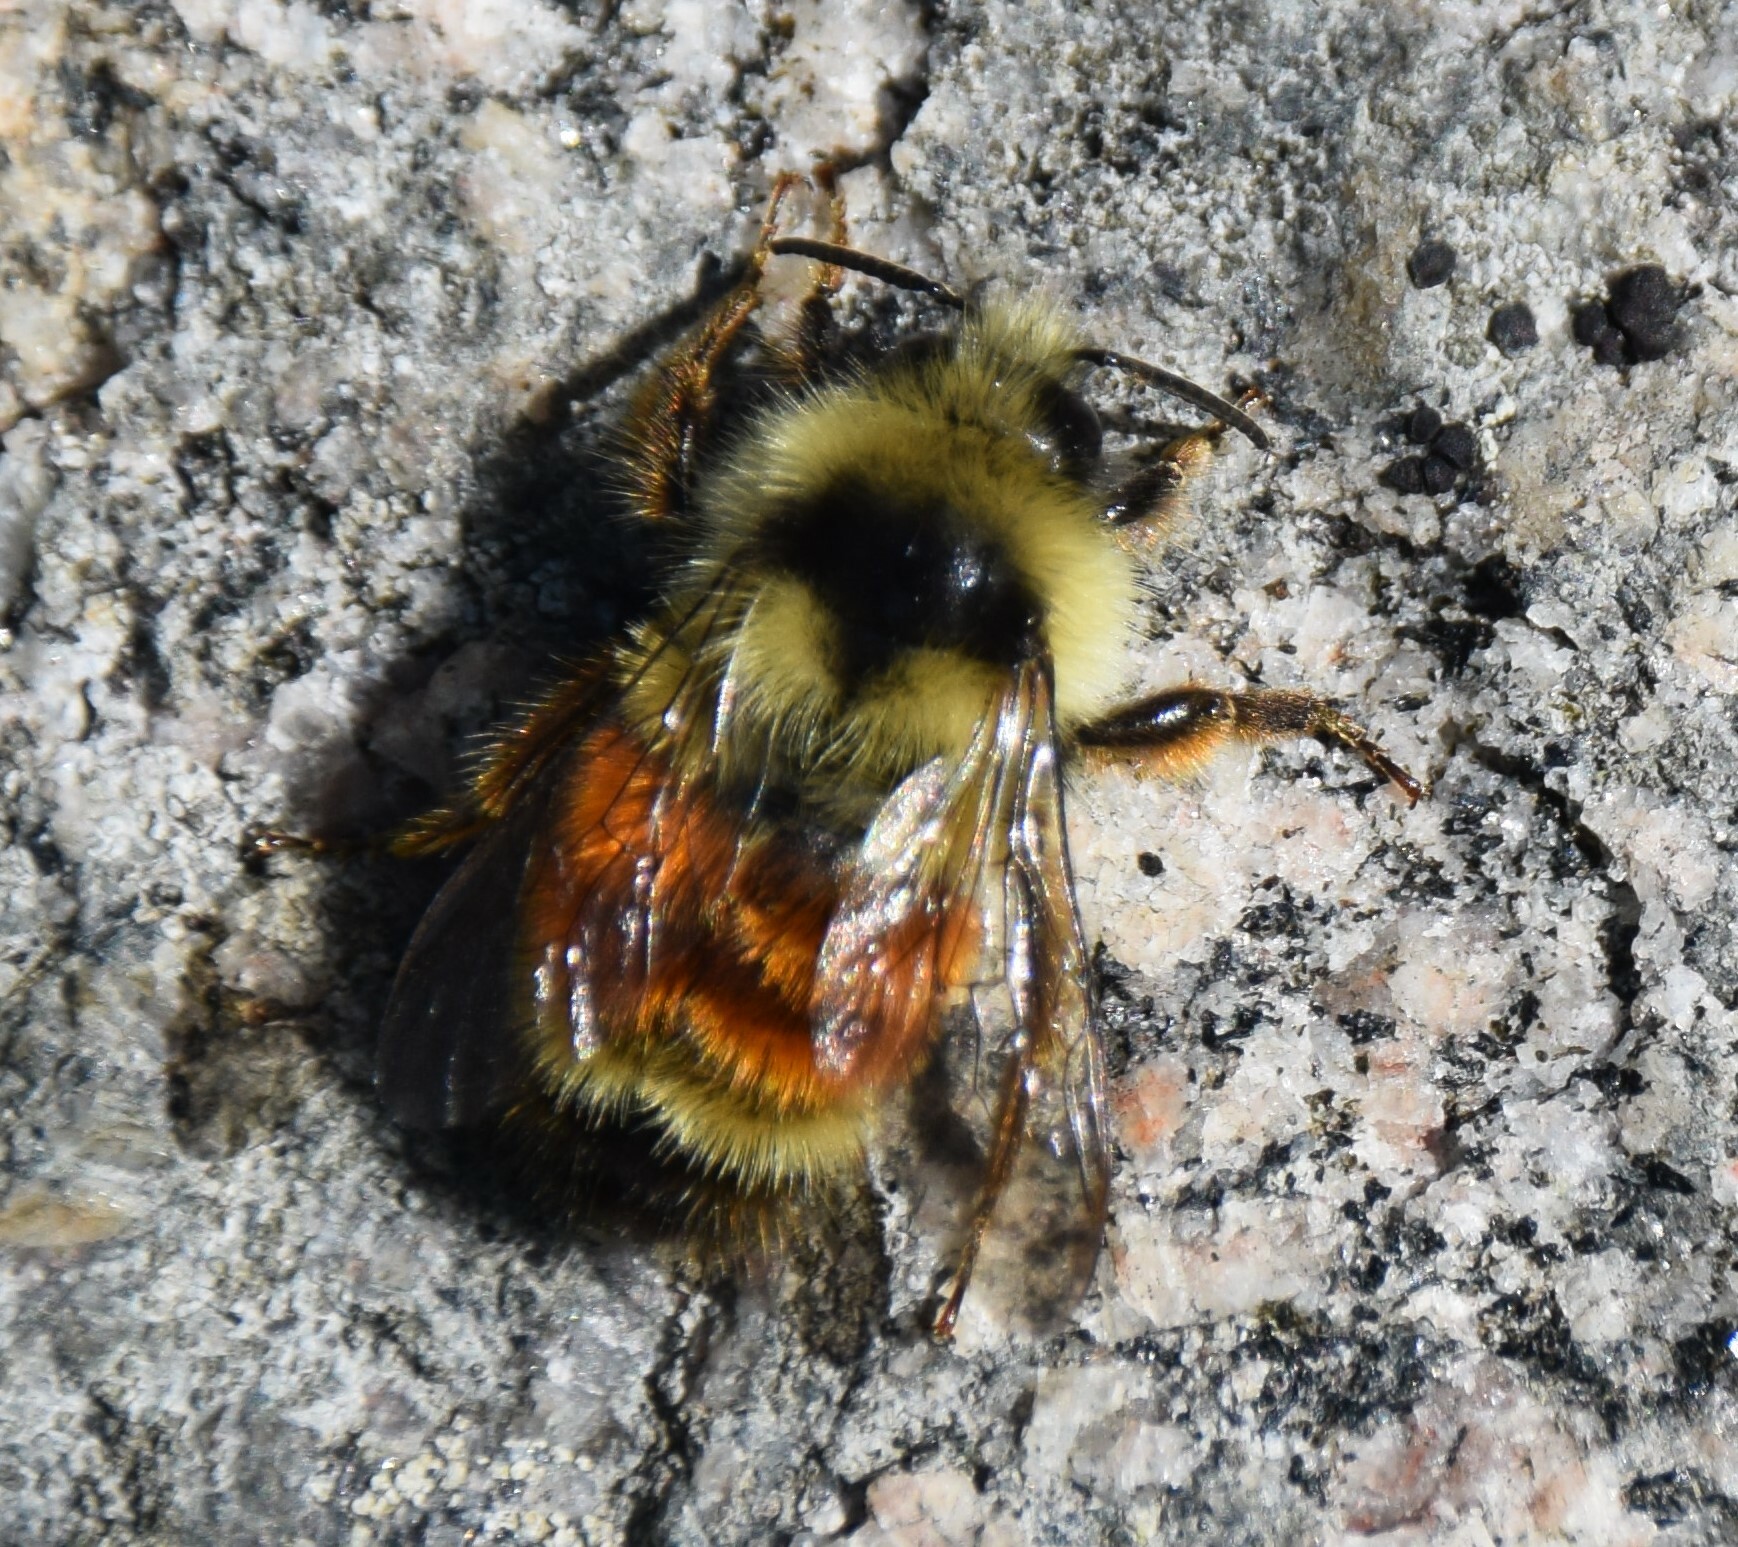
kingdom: Animalia
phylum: Arthropoda
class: Insecta
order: Hymenoptera
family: Apidae
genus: Bombus
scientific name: Bombus ternarius
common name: Tri-colored bumble bee
